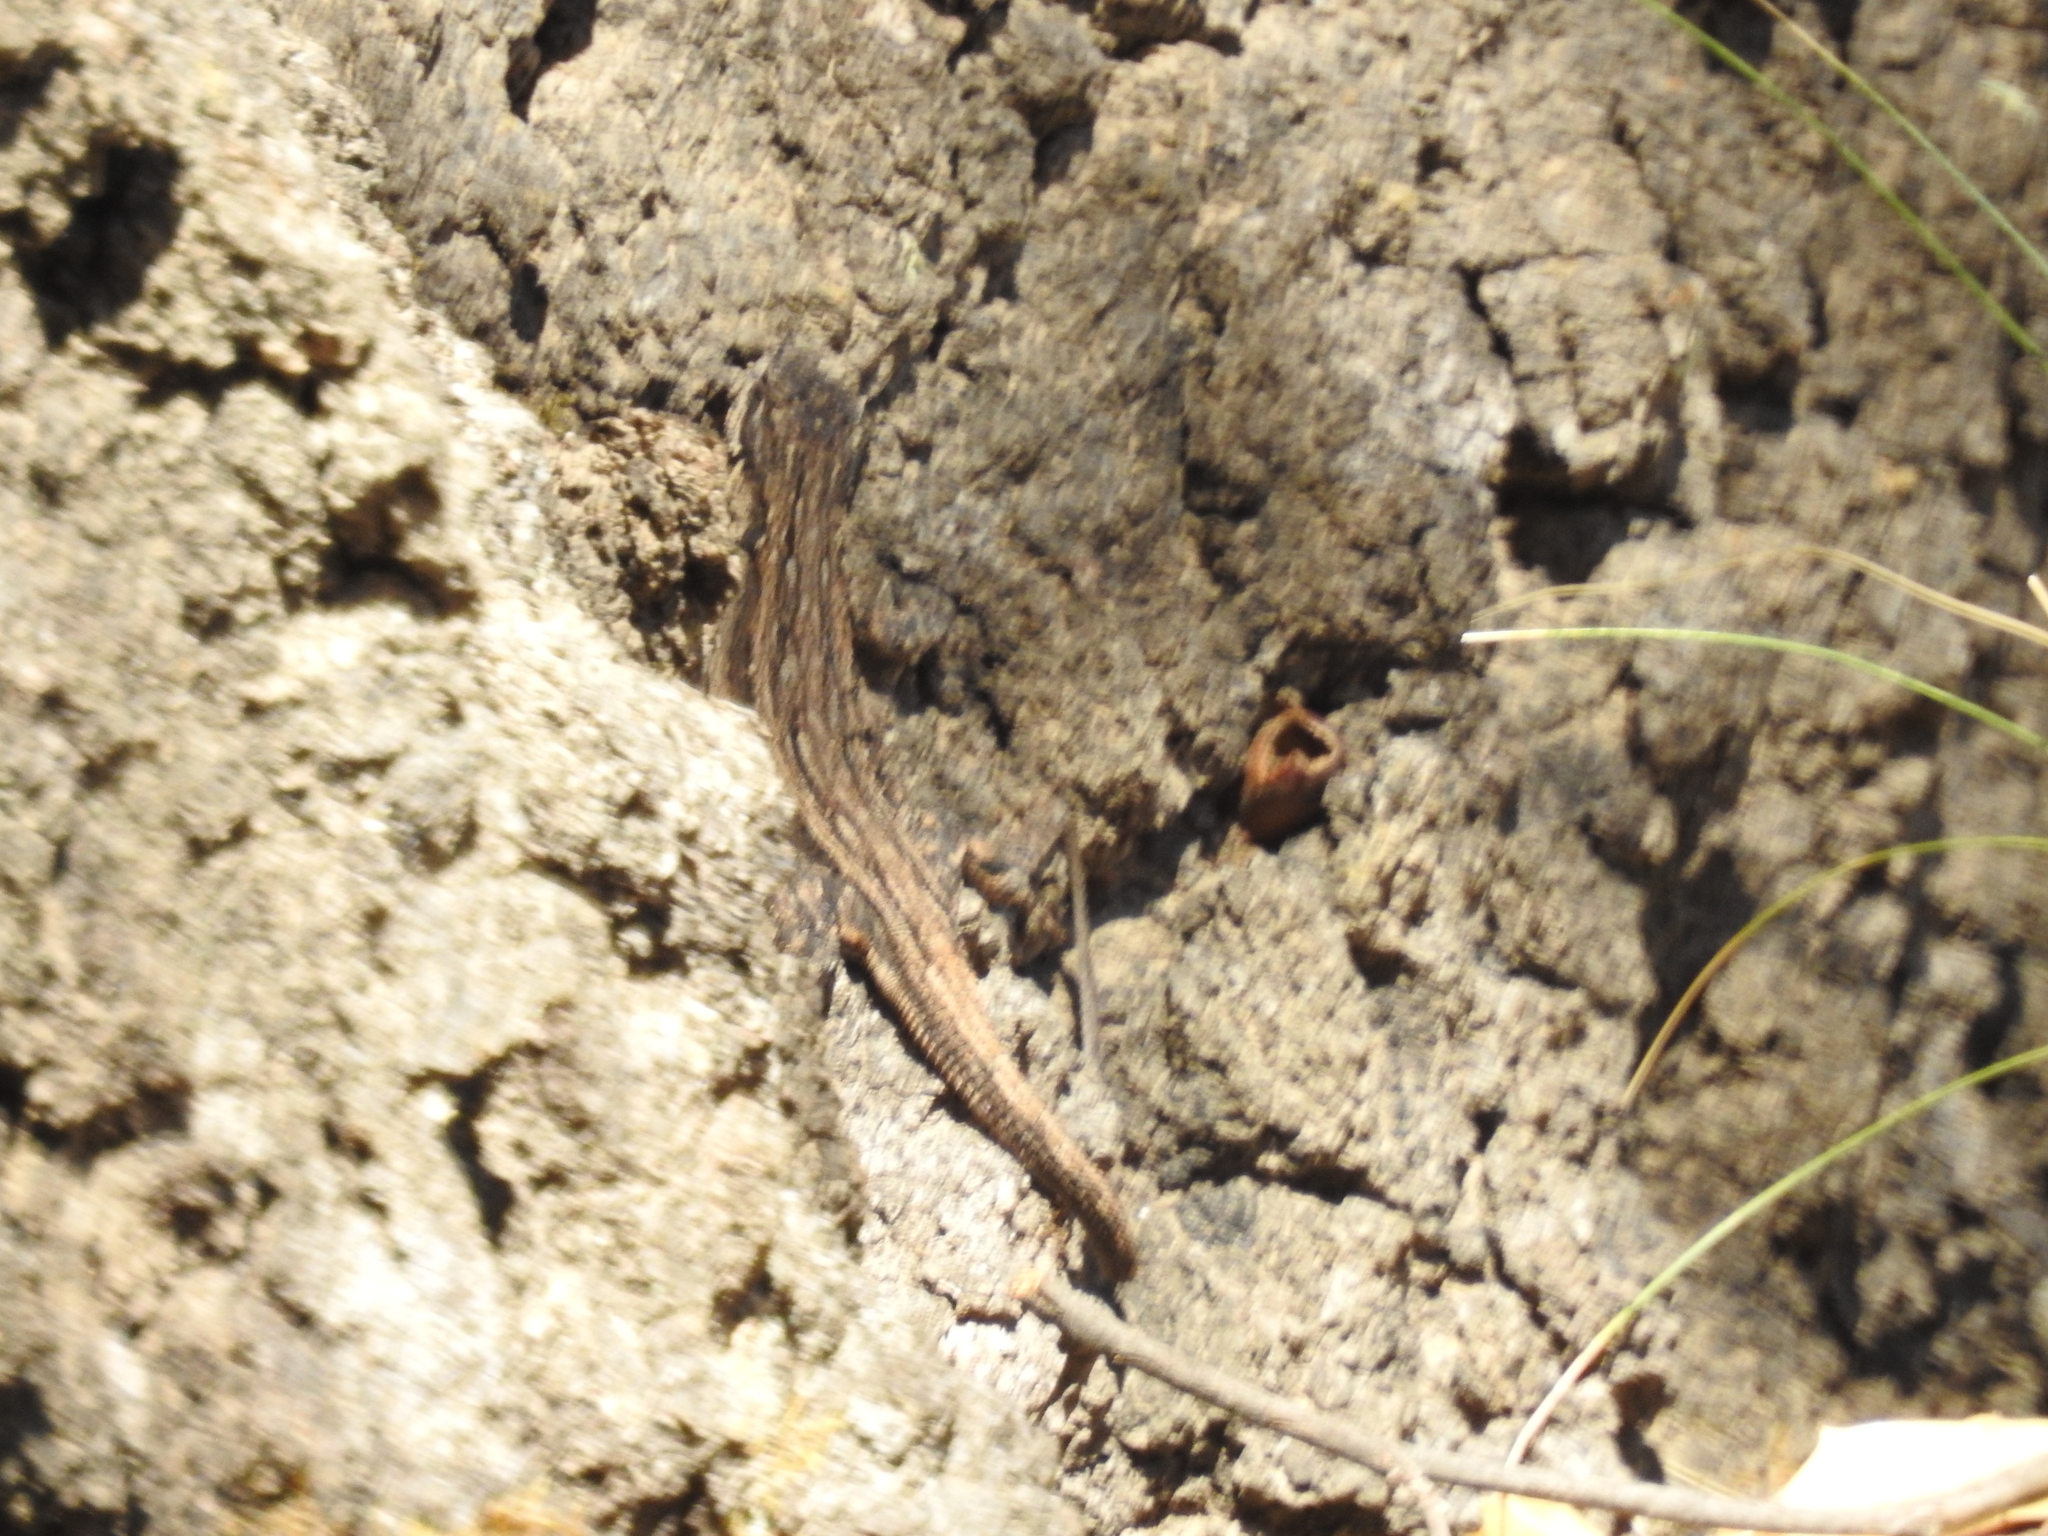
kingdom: Animalia
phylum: Chordata
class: Squamata
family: Phrynosomatidae
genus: Urosaurus
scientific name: Urosaurus ornatus
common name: Ornate tree lizard
